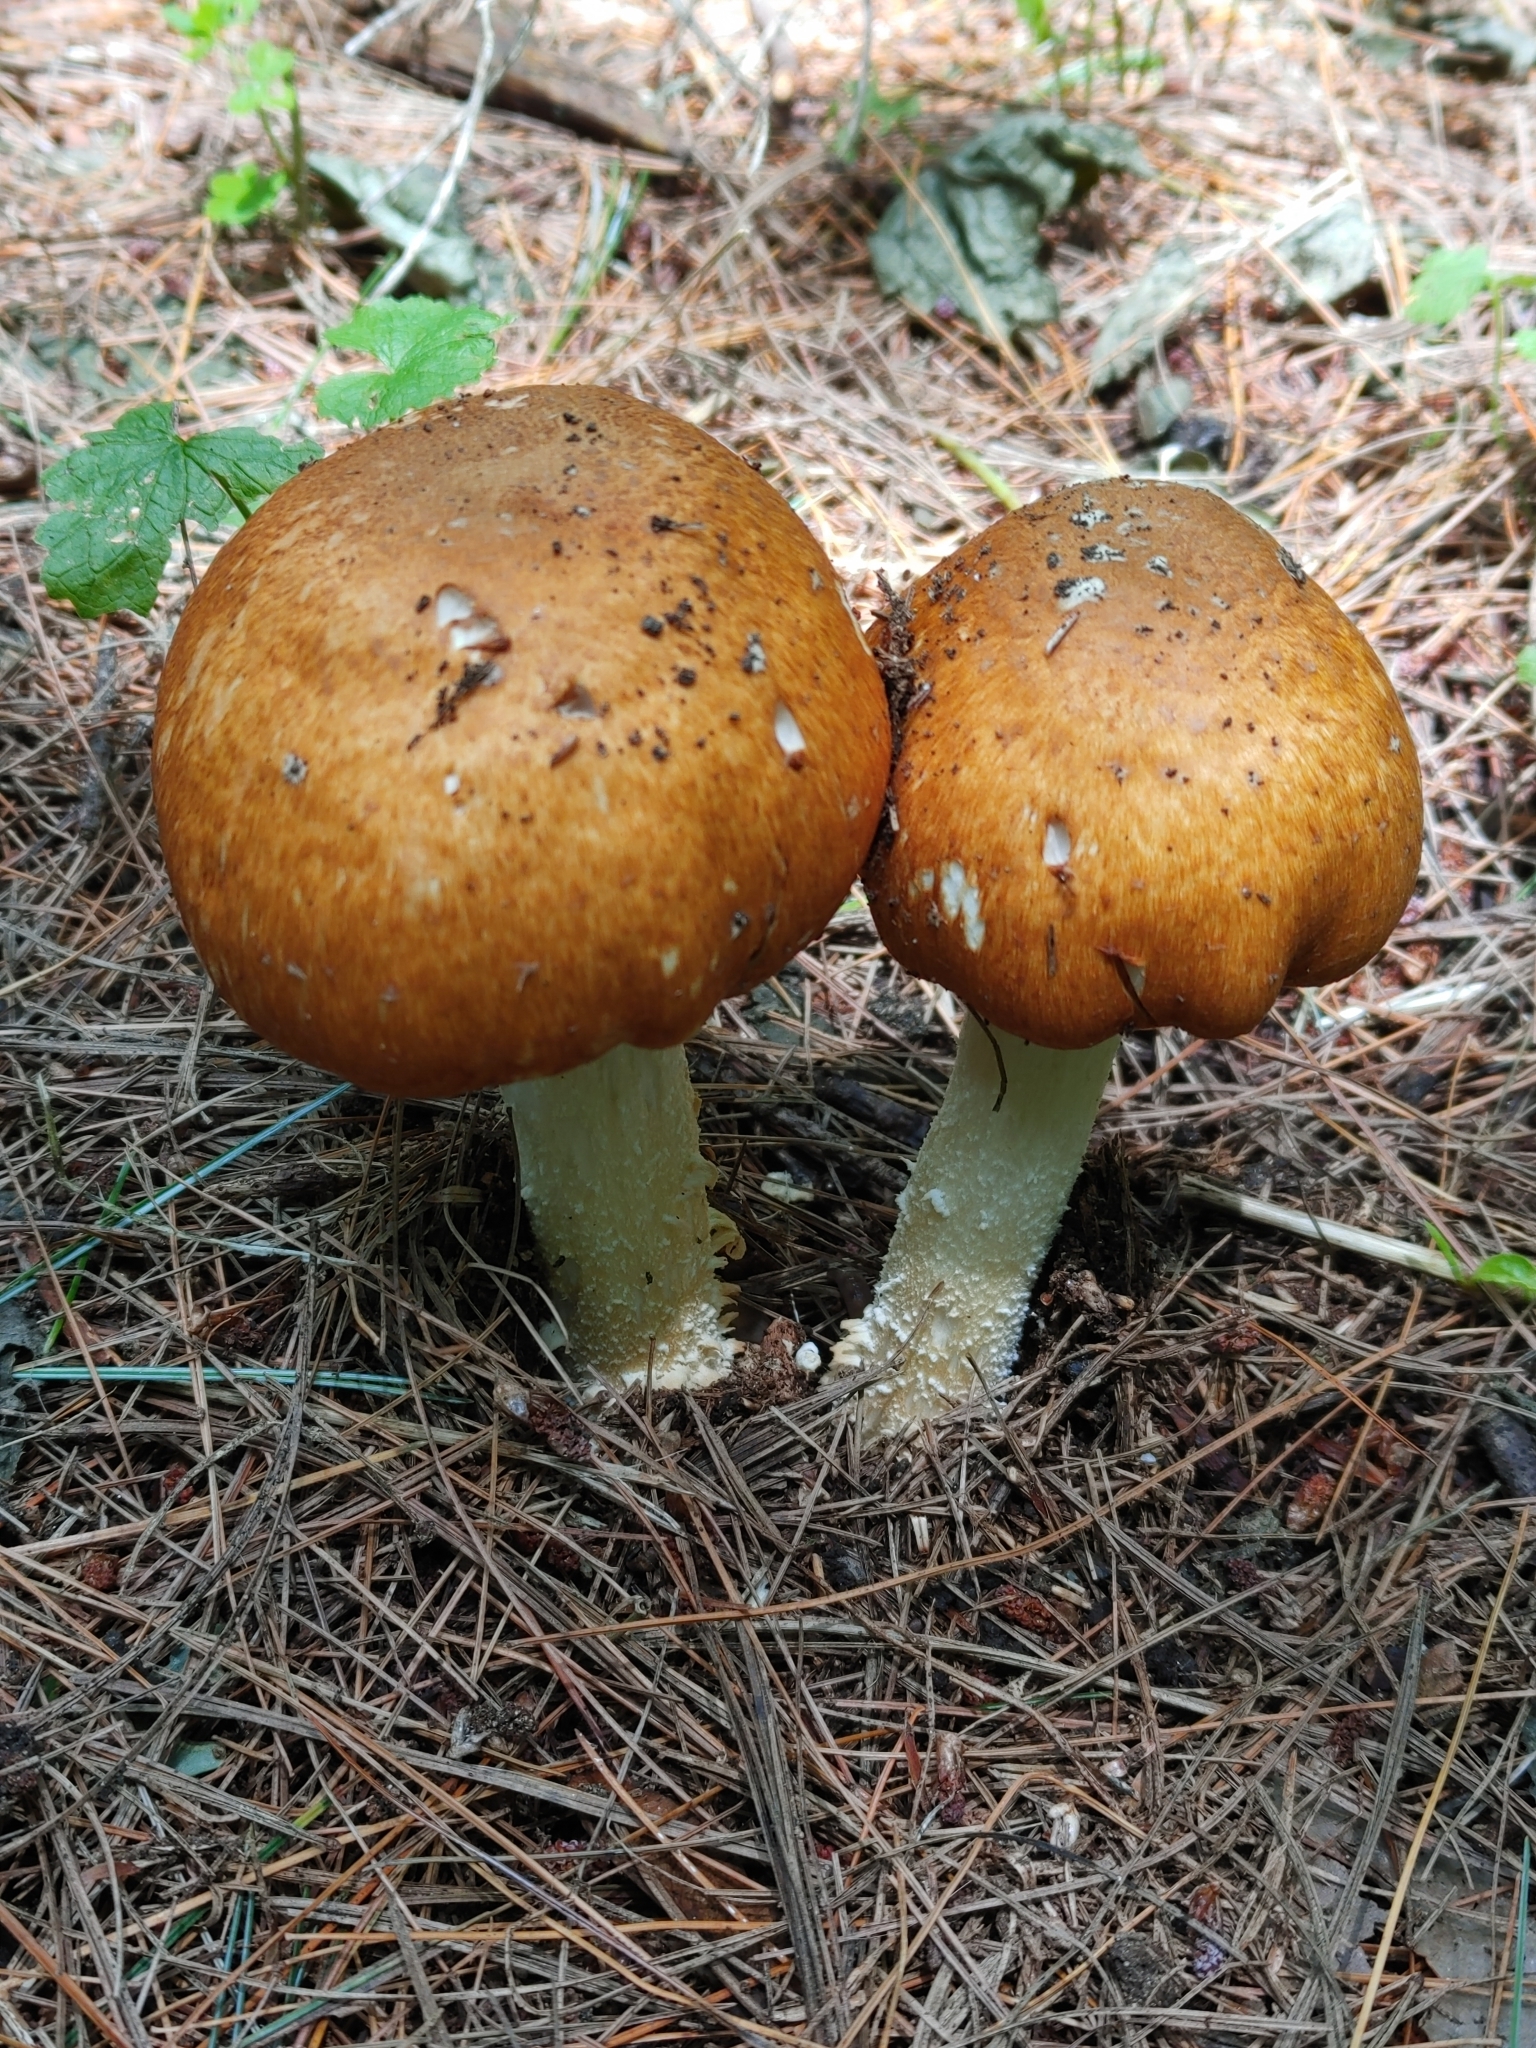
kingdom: Fungi
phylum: Basidiomycota
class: Agaricomycetes
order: Agaricales
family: Agaricaceae
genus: Agaricus
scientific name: Agaricus nanaugustus
